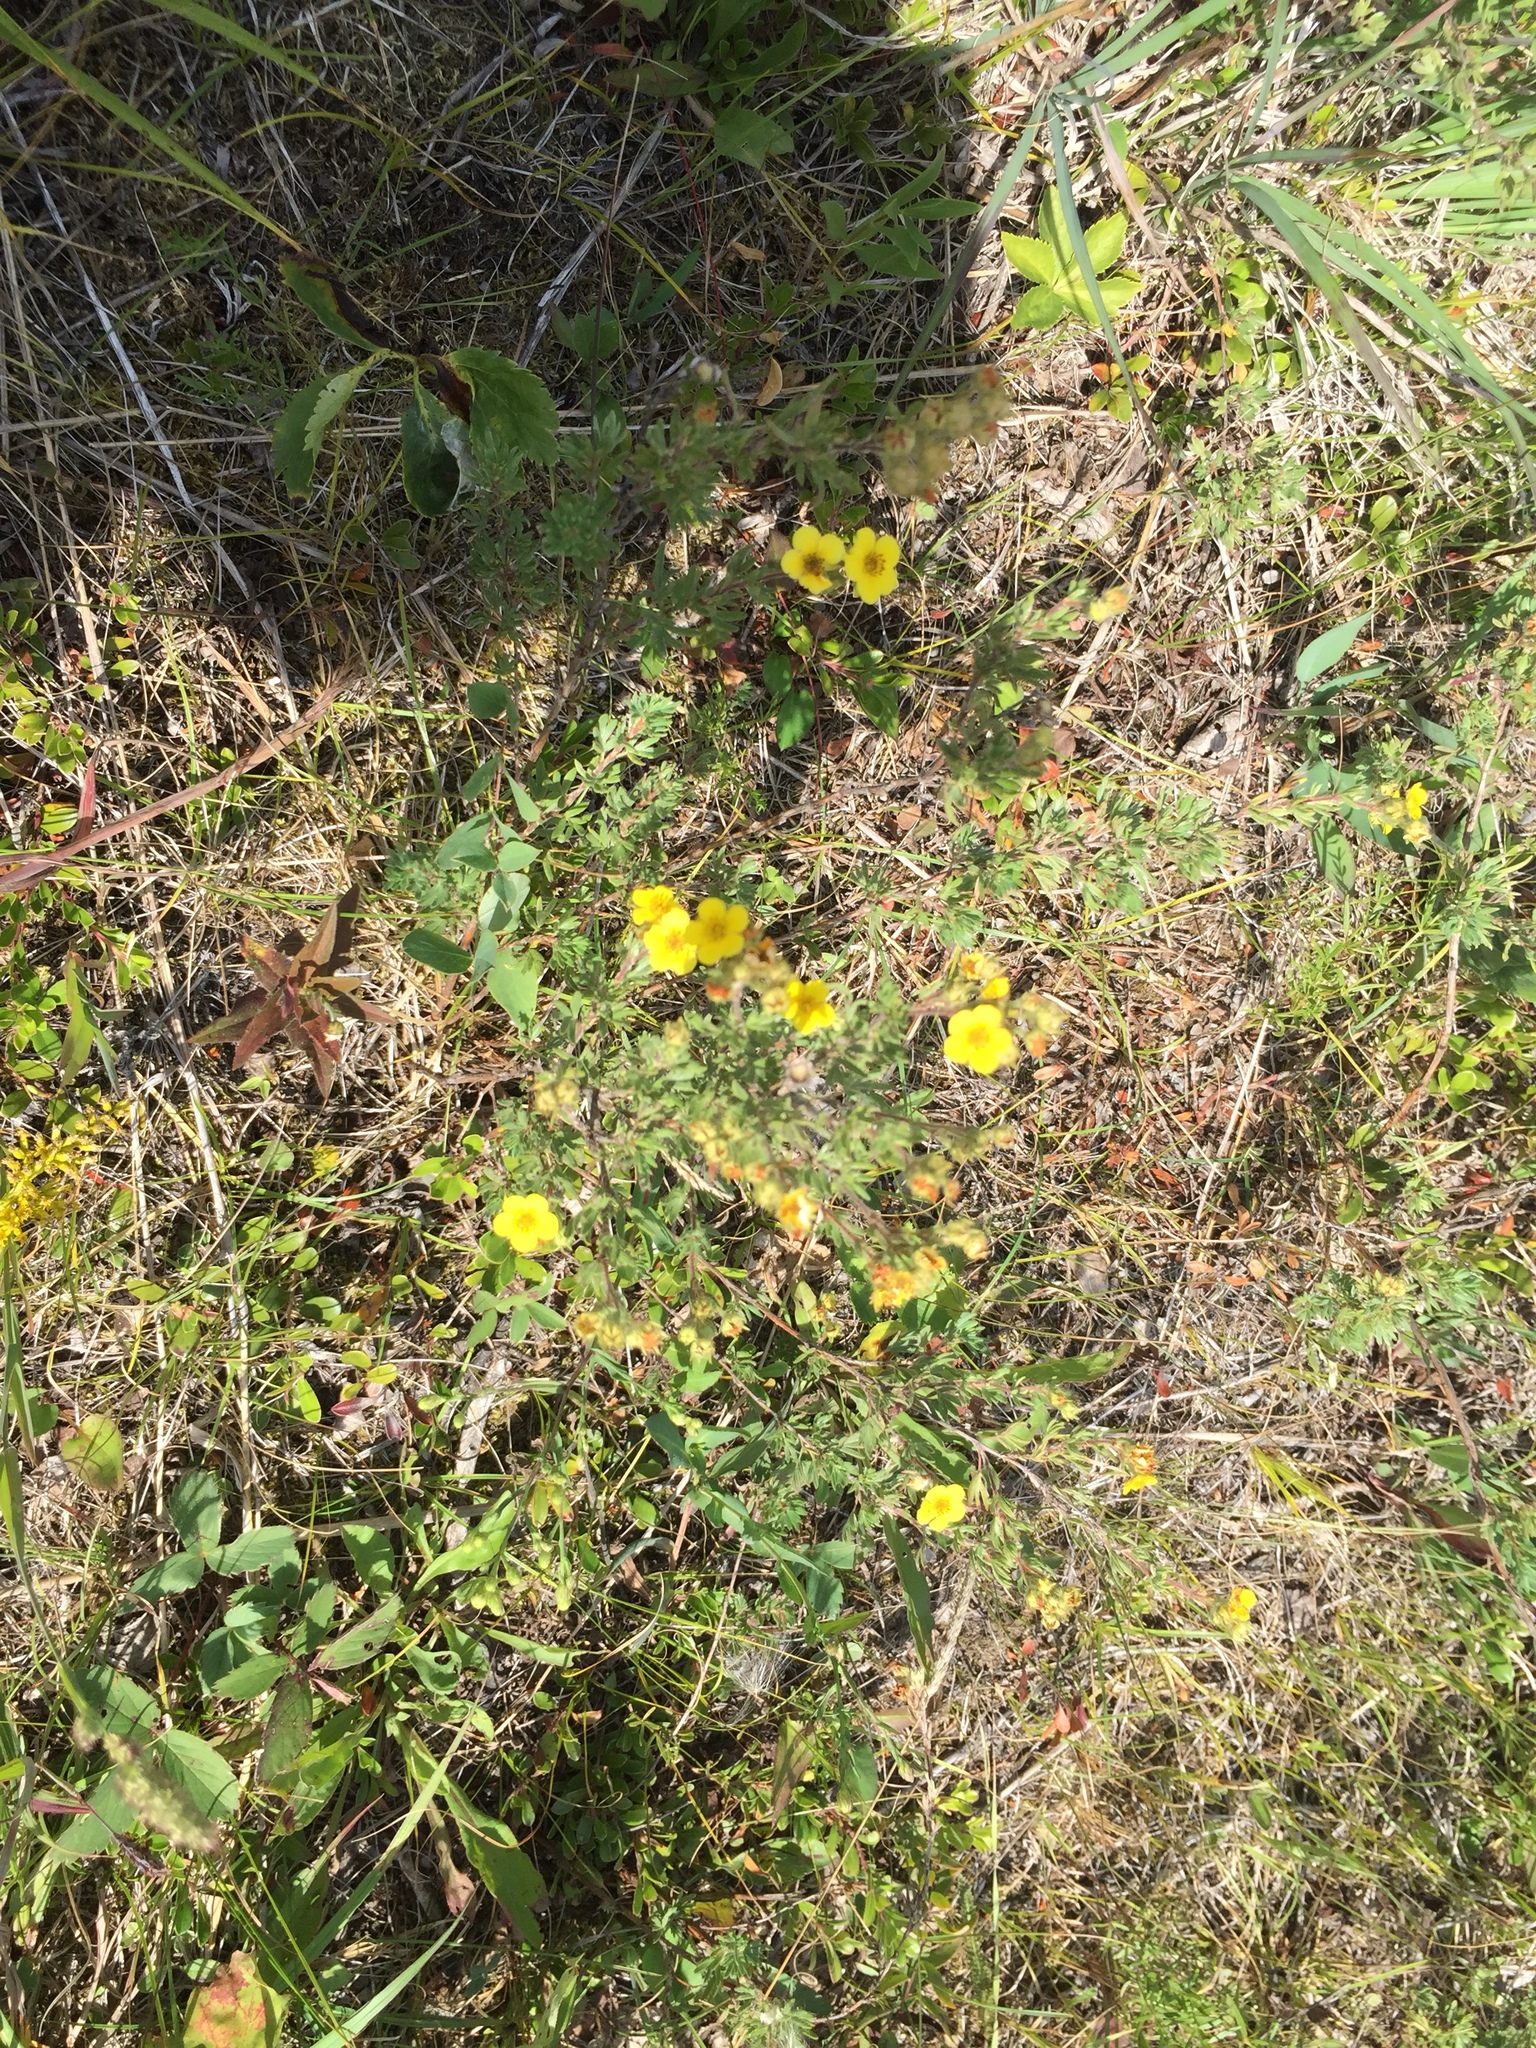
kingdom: Plantae
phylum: Tracheophyta
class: Magnoliopsida
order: Rosales
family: Rosaceae
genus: Dasiphora
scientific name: Dasiphora fruticosa
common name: Shrubby cinquefoil
